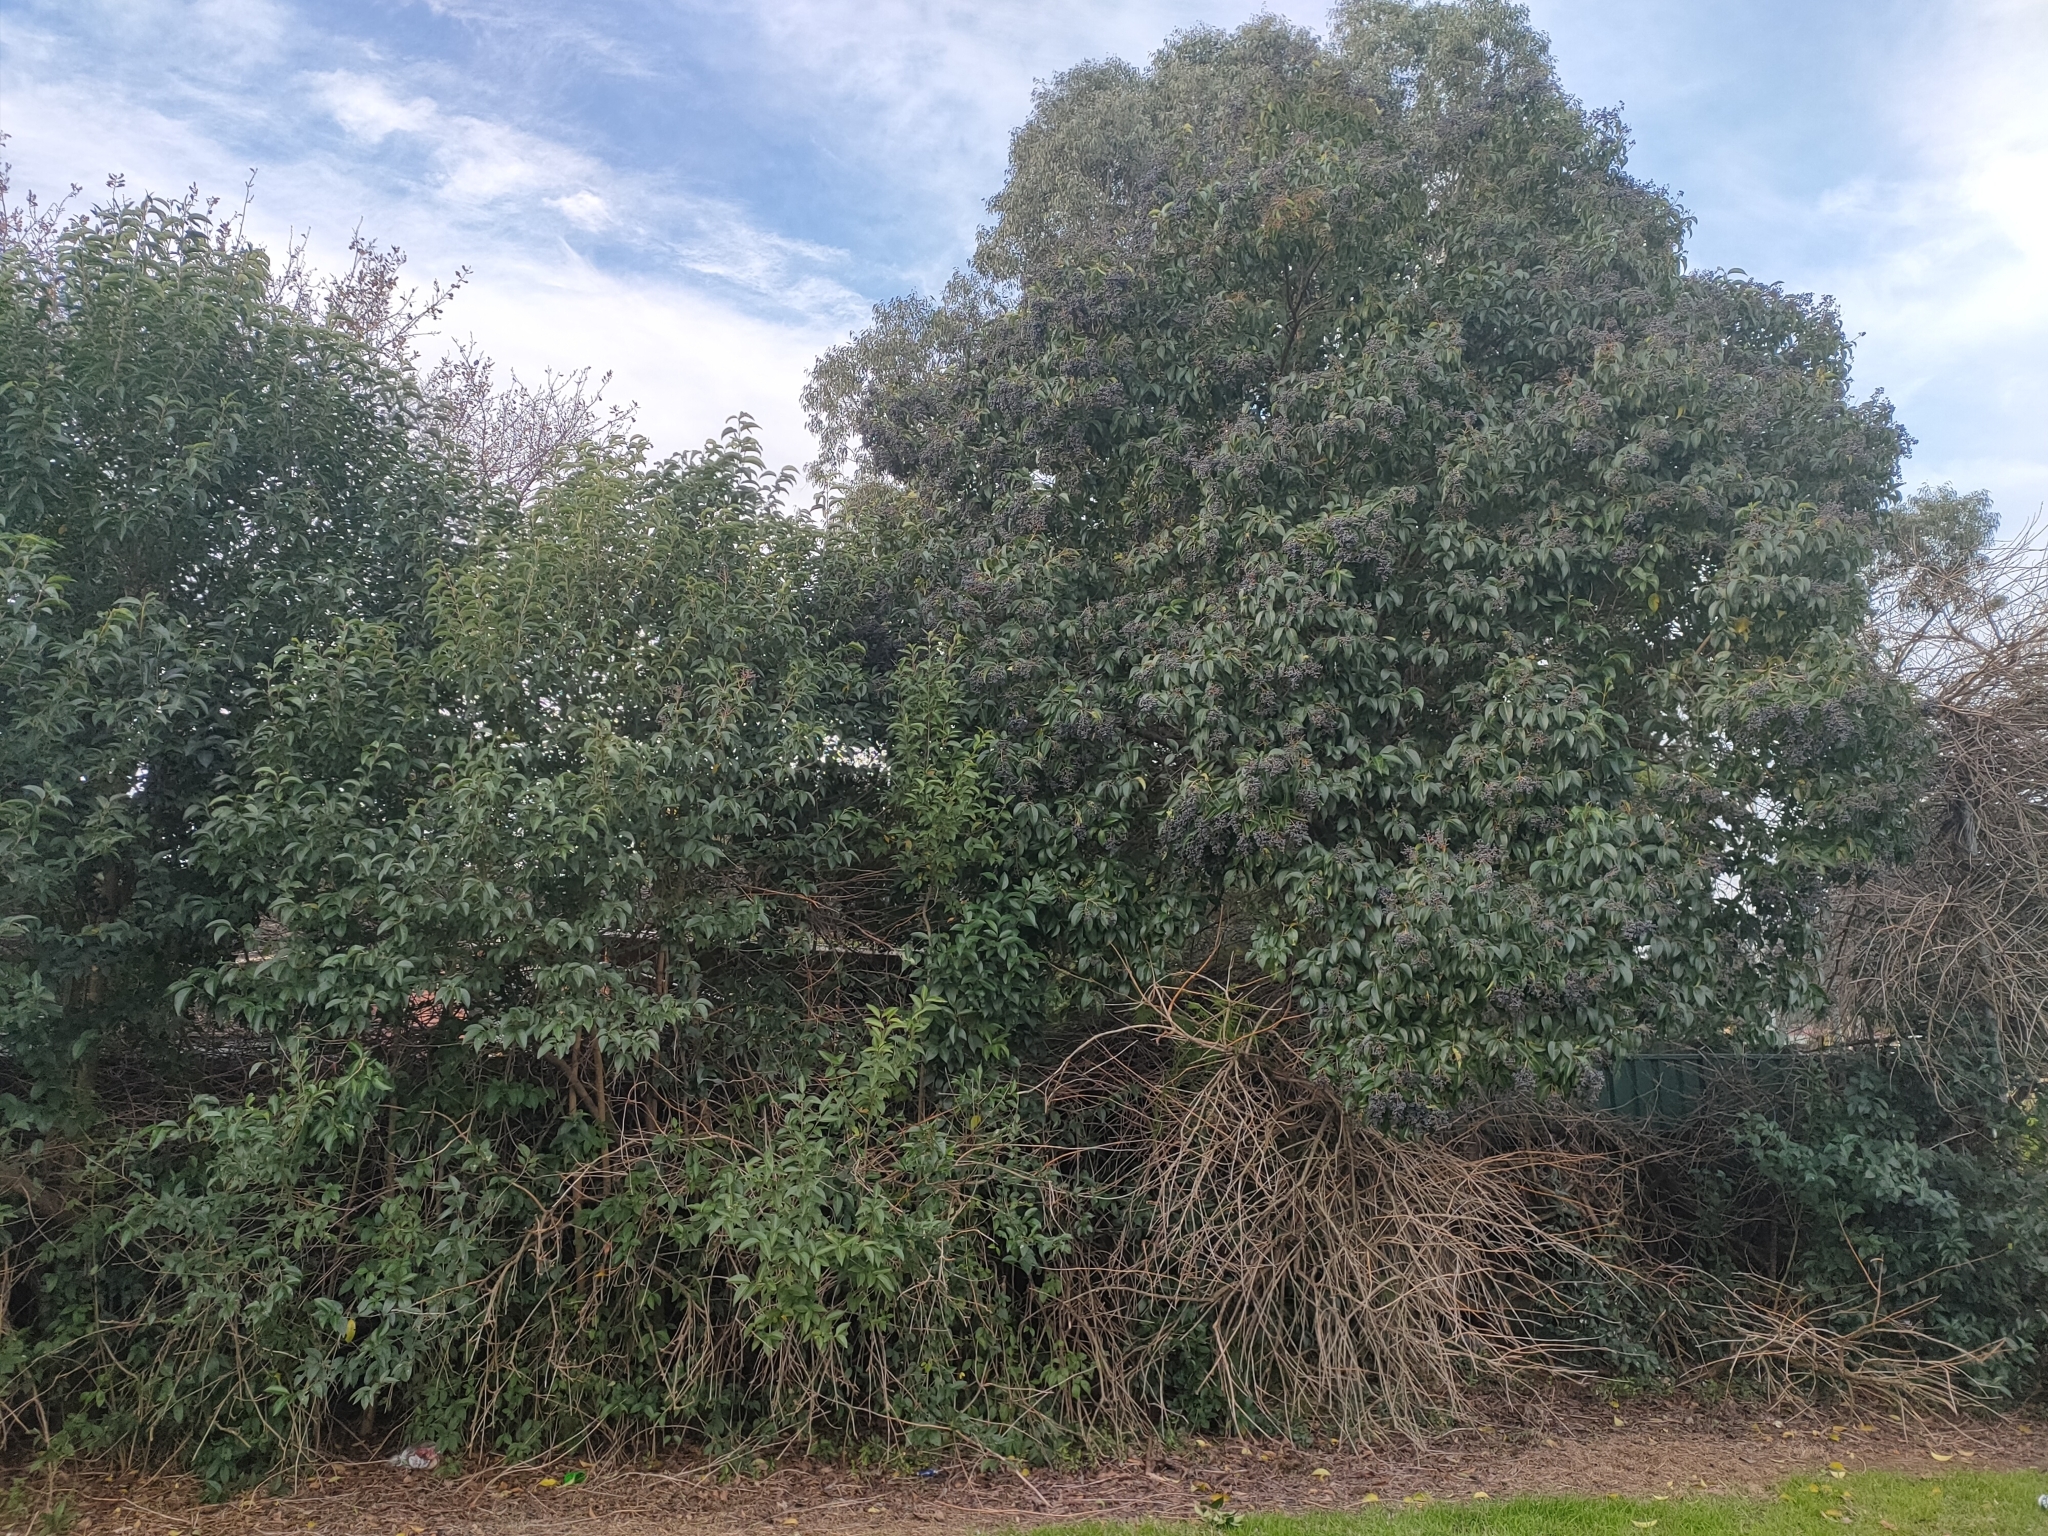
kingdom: Plantae
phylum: Tracheophyta
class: Magnoliopsida
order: Lamiales
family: Oleaceae
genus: Ligustrum
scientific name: Ligustrum lucidum
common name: Glossy privet
